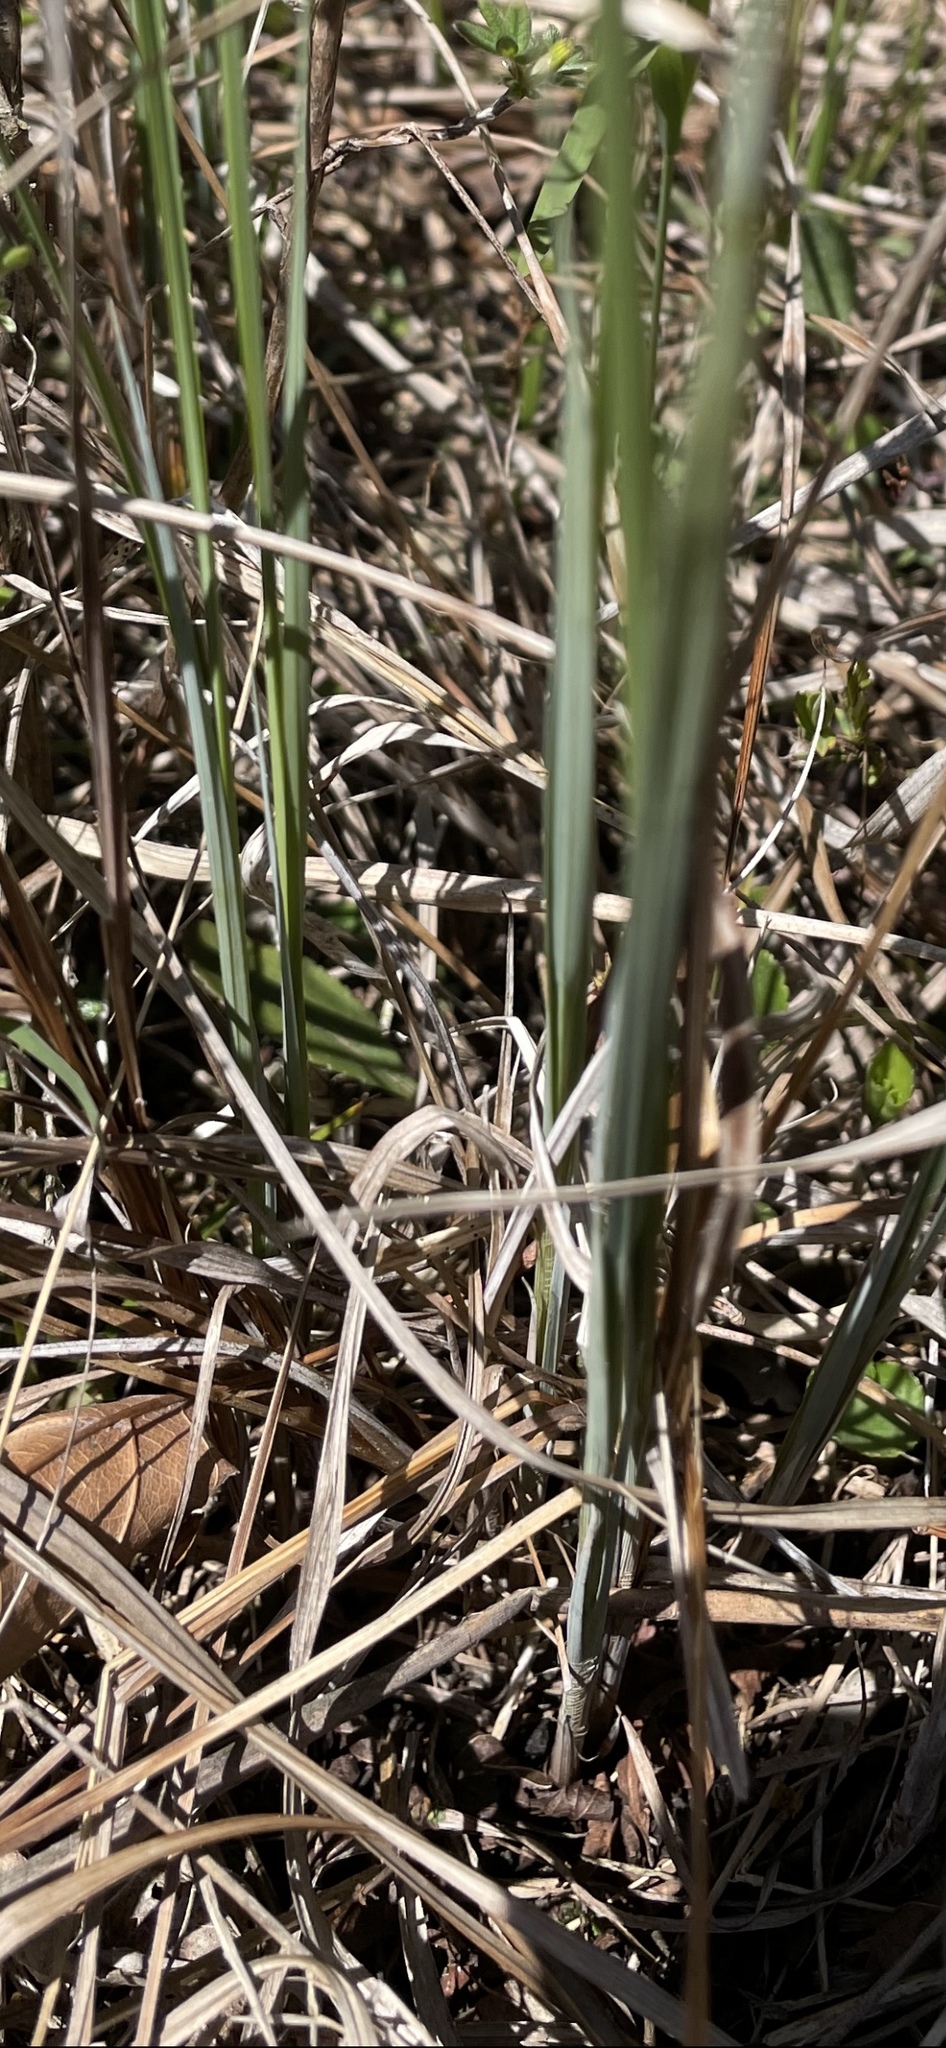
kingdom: Plantae
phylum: Tracheophyta
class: Liliopsida
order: Poales
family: Cyperaceae
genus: Carex
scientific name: Carex buxbaumii
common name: Club sedge
